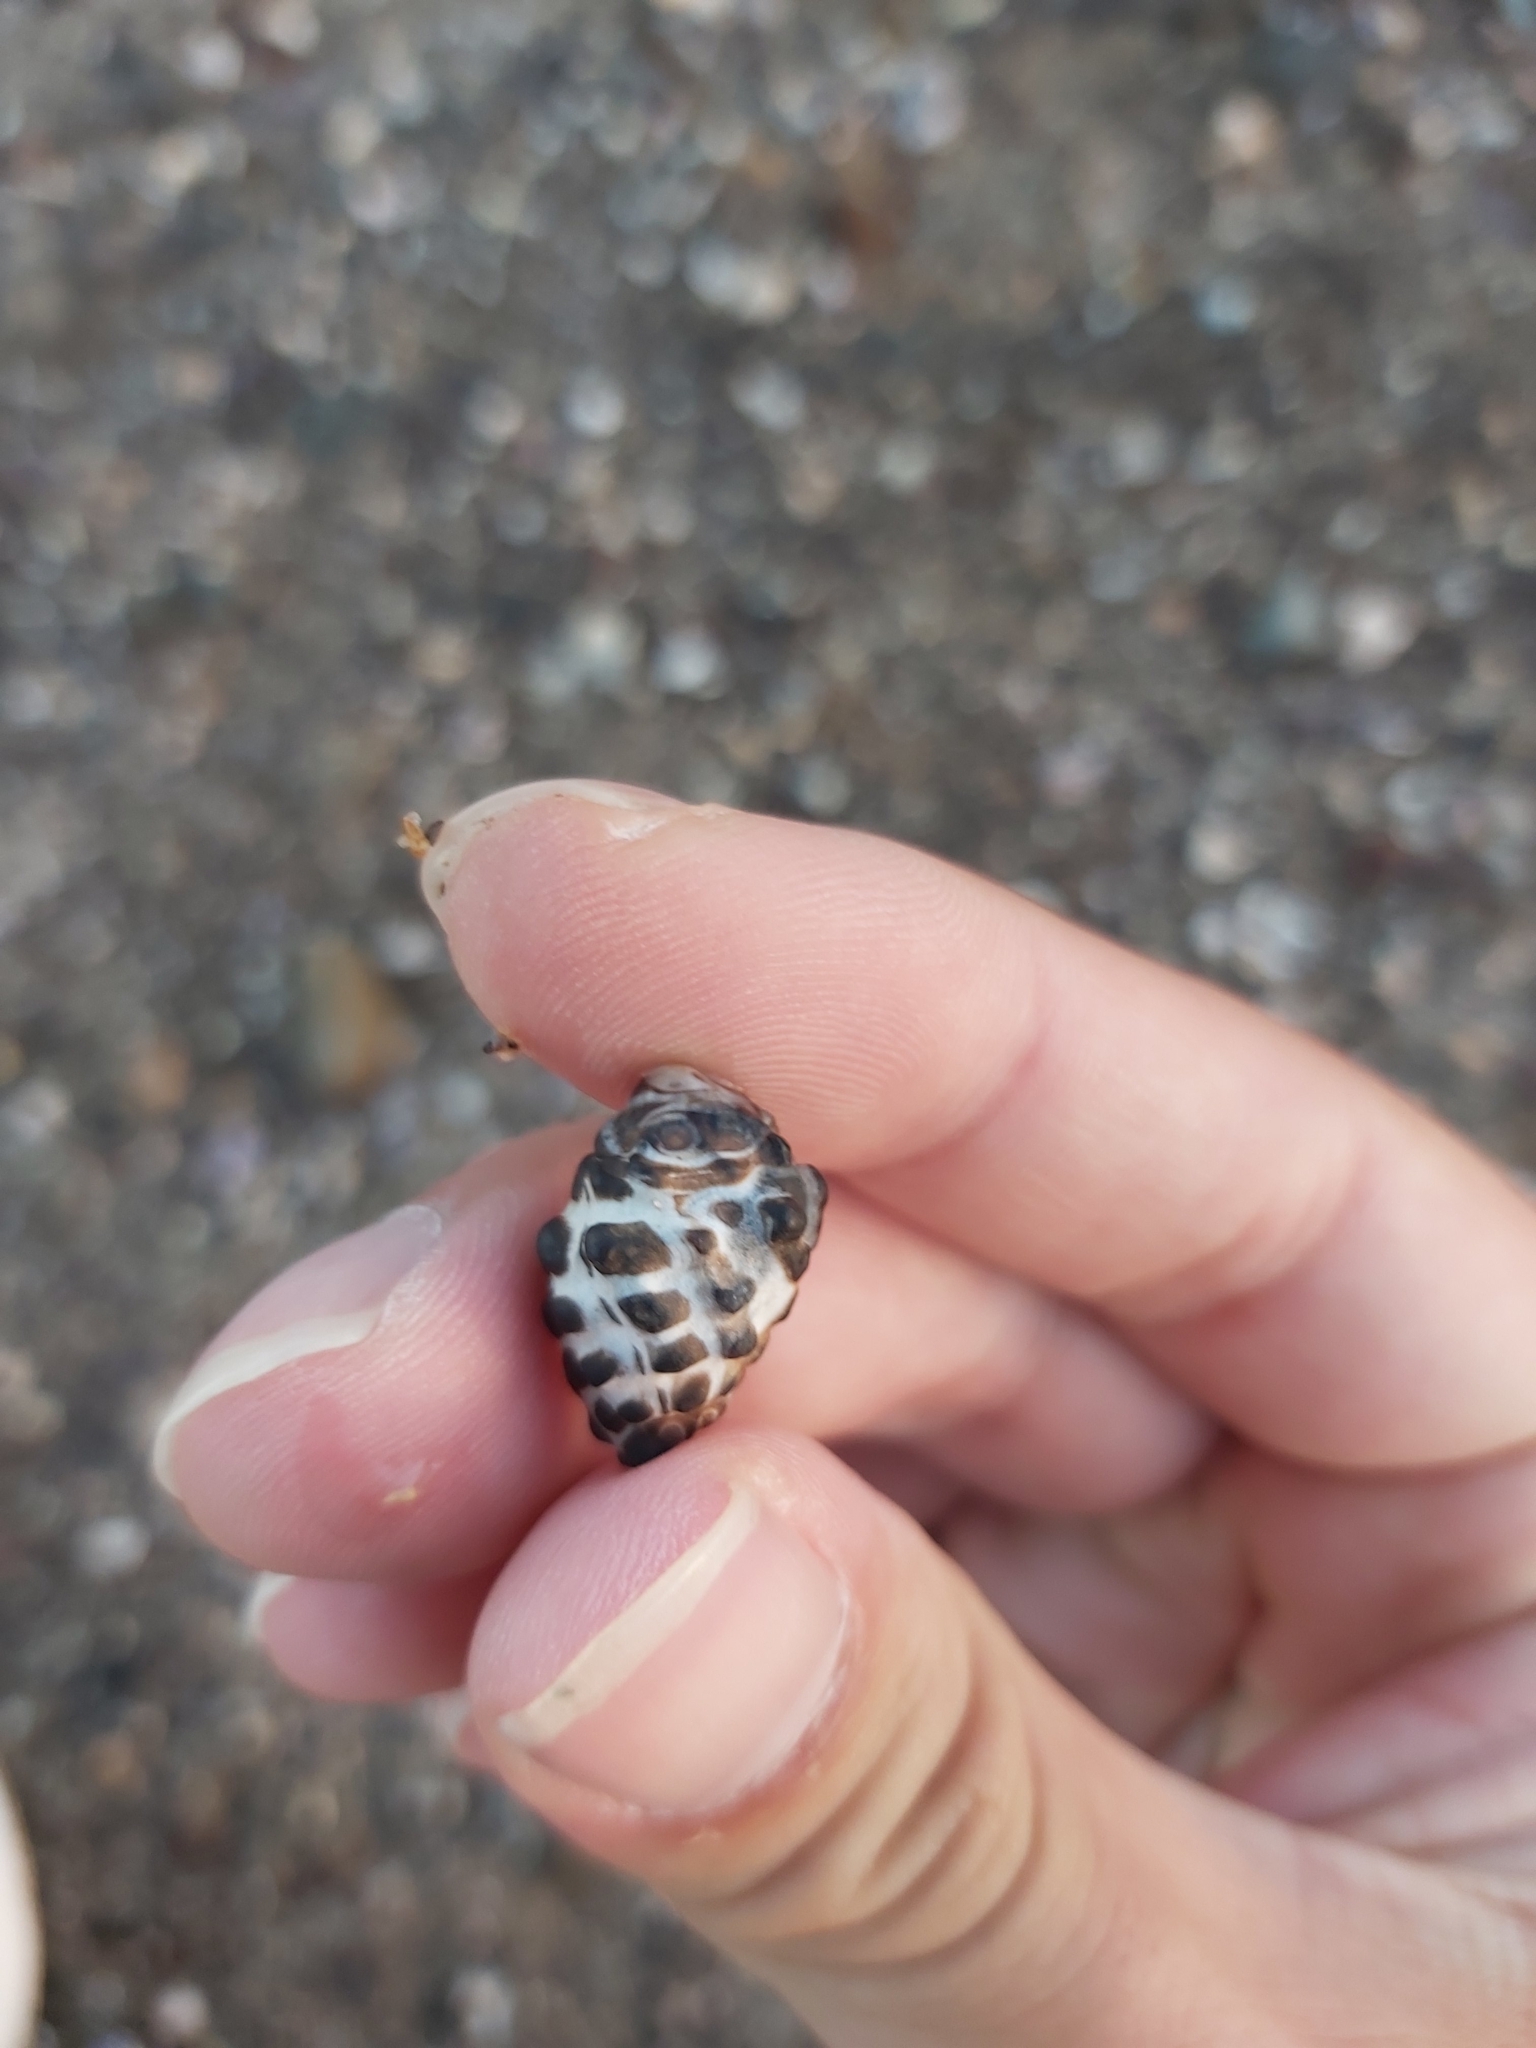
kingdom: Animalia
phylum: Mollusca
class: Gastropoda
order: Neogastropoda
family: Muricidae
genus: Tenguella
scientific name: Tenguella marginalba
